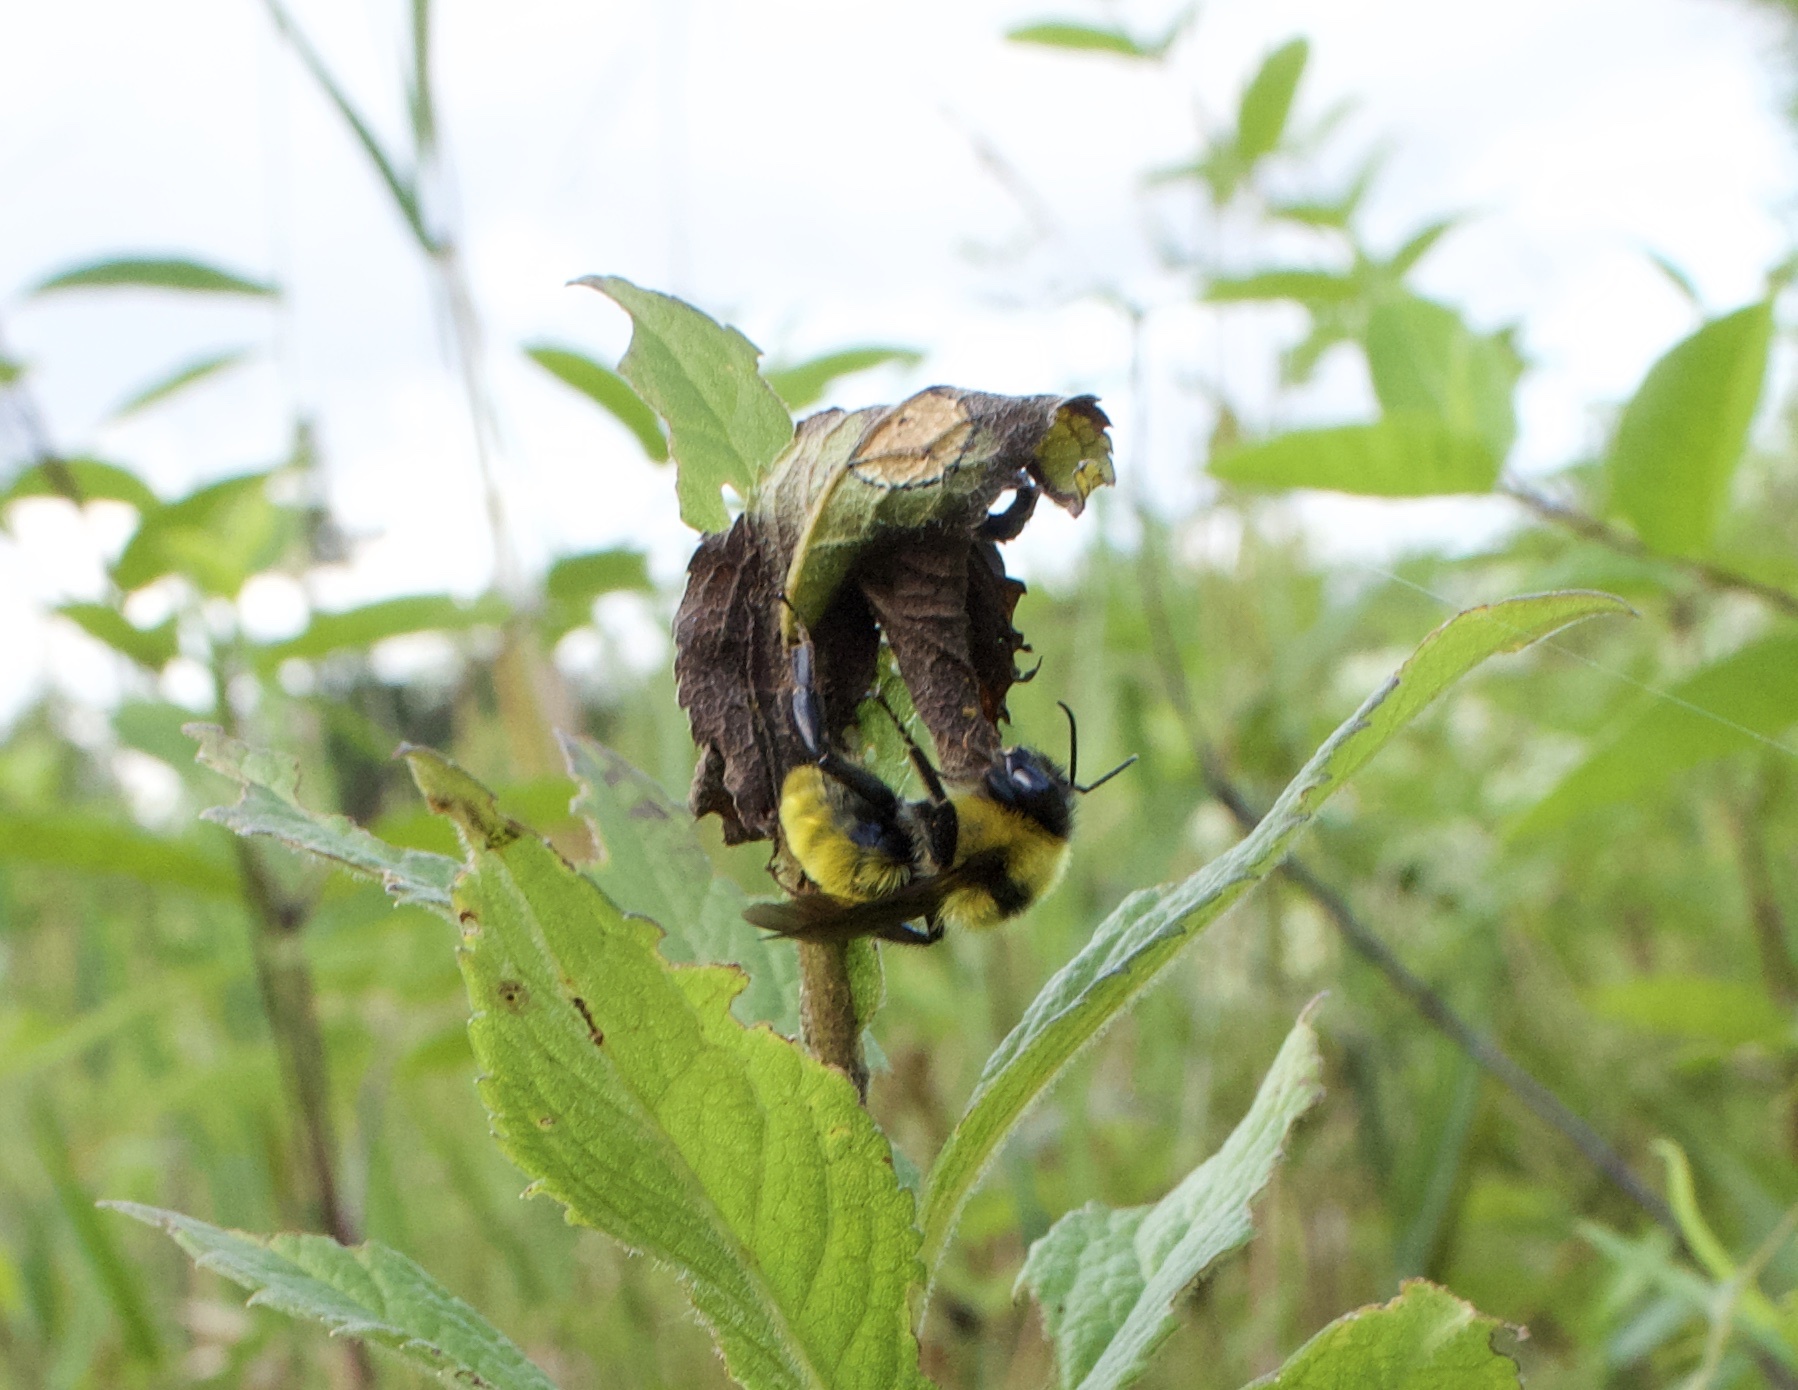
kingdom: Animalia
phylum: Arthropoda
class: Insecta
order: Hymenoptera
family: Apidae
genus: Bombus
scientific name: Bombus fervidus
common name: Yellow bumble bee
